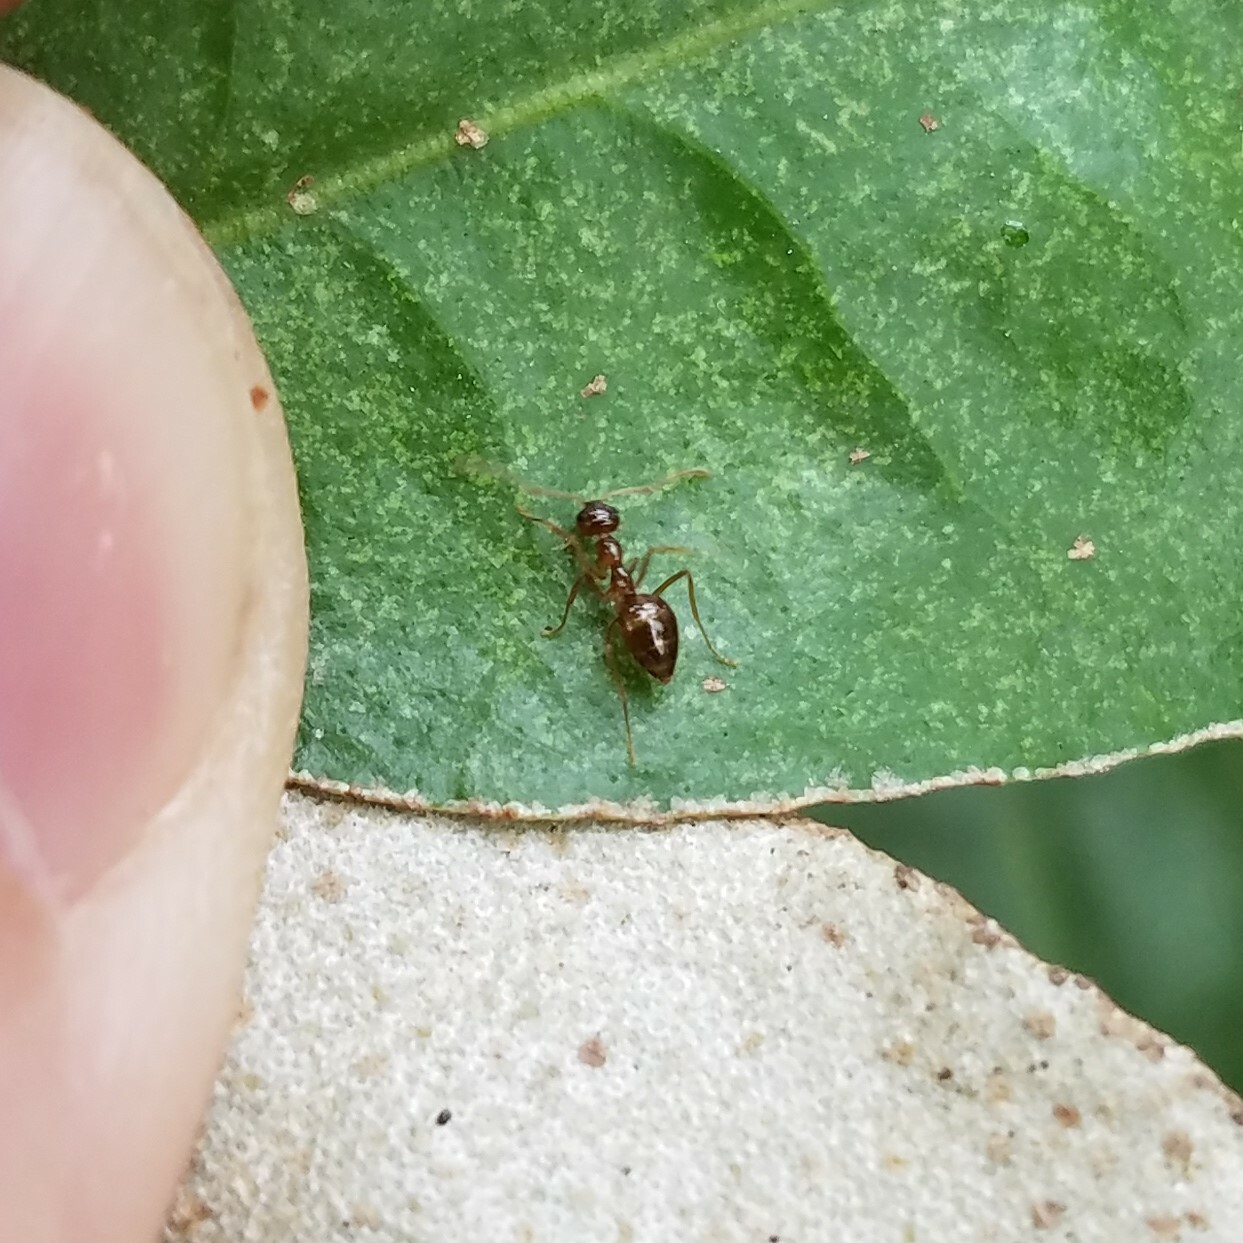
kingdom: Animalia
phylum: Arthropoda
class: Insecta
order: Hymenoptera
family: Formicidae
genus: Prenolepis
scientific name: Prenolepis imparis
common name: Small honey ant
